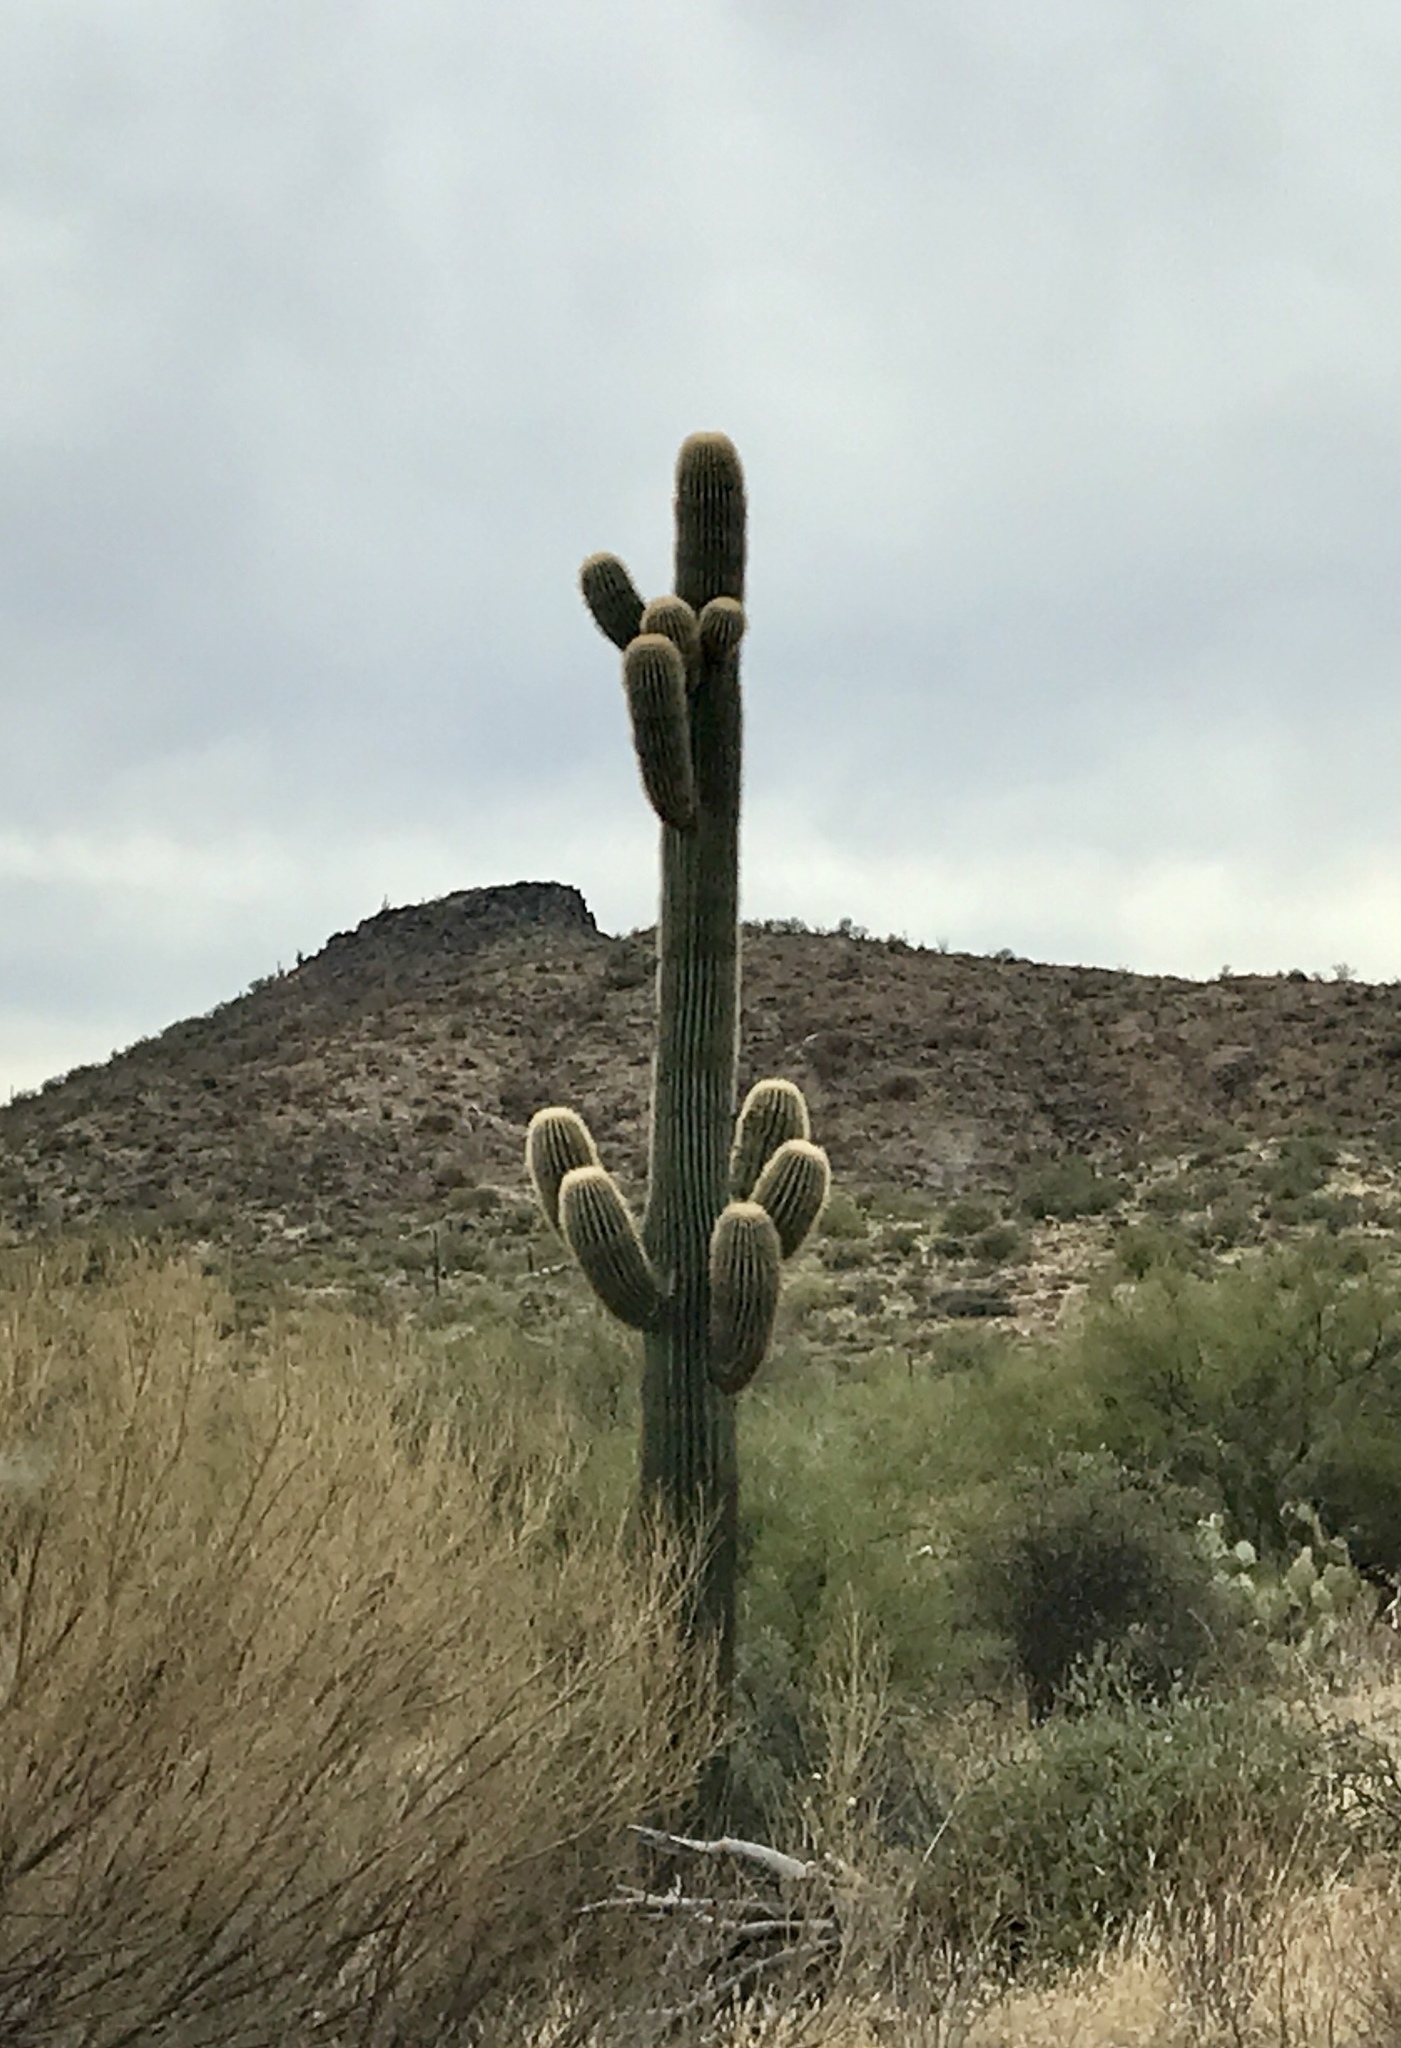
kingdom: Plantae
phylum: Tracheophyta
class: Magnoliopsida
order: Caryophyllales
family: Cactaceae
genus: Carnegiea
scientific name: Carnegiea gigantea
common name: Saguaro
